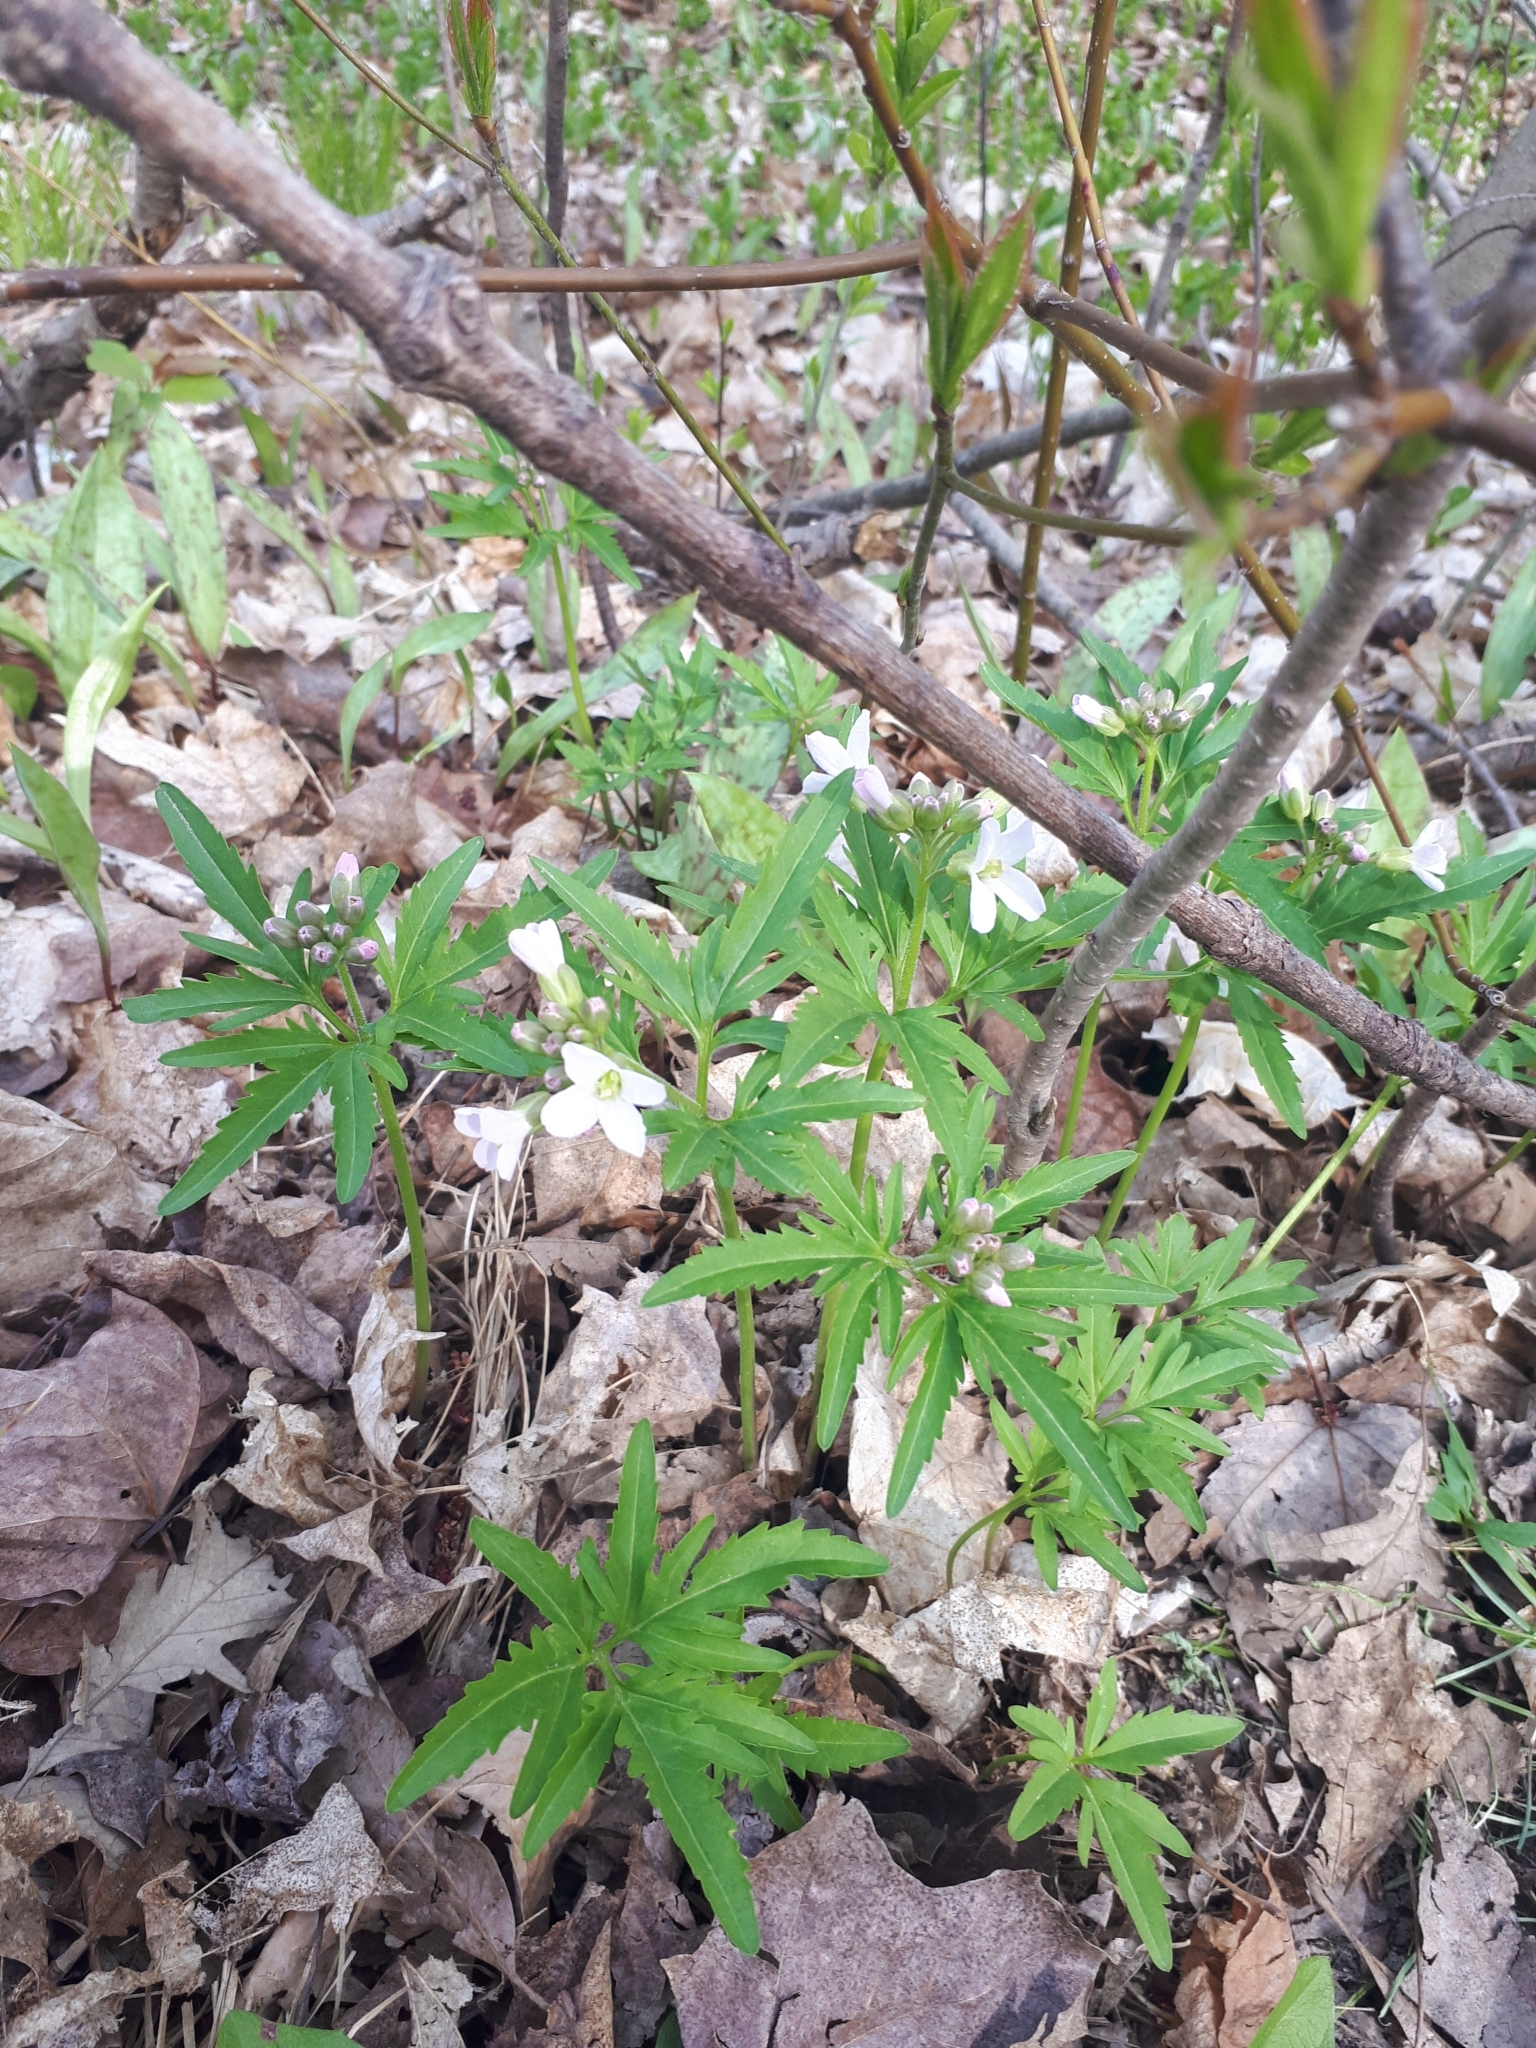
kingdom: Plantae
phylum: Tracheophyta
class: Magnoliopsida
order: Brassicales
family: Brassicaceae
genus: Cardamine
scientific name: Cardamine concatenata
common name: Cut-leaf toothcup
